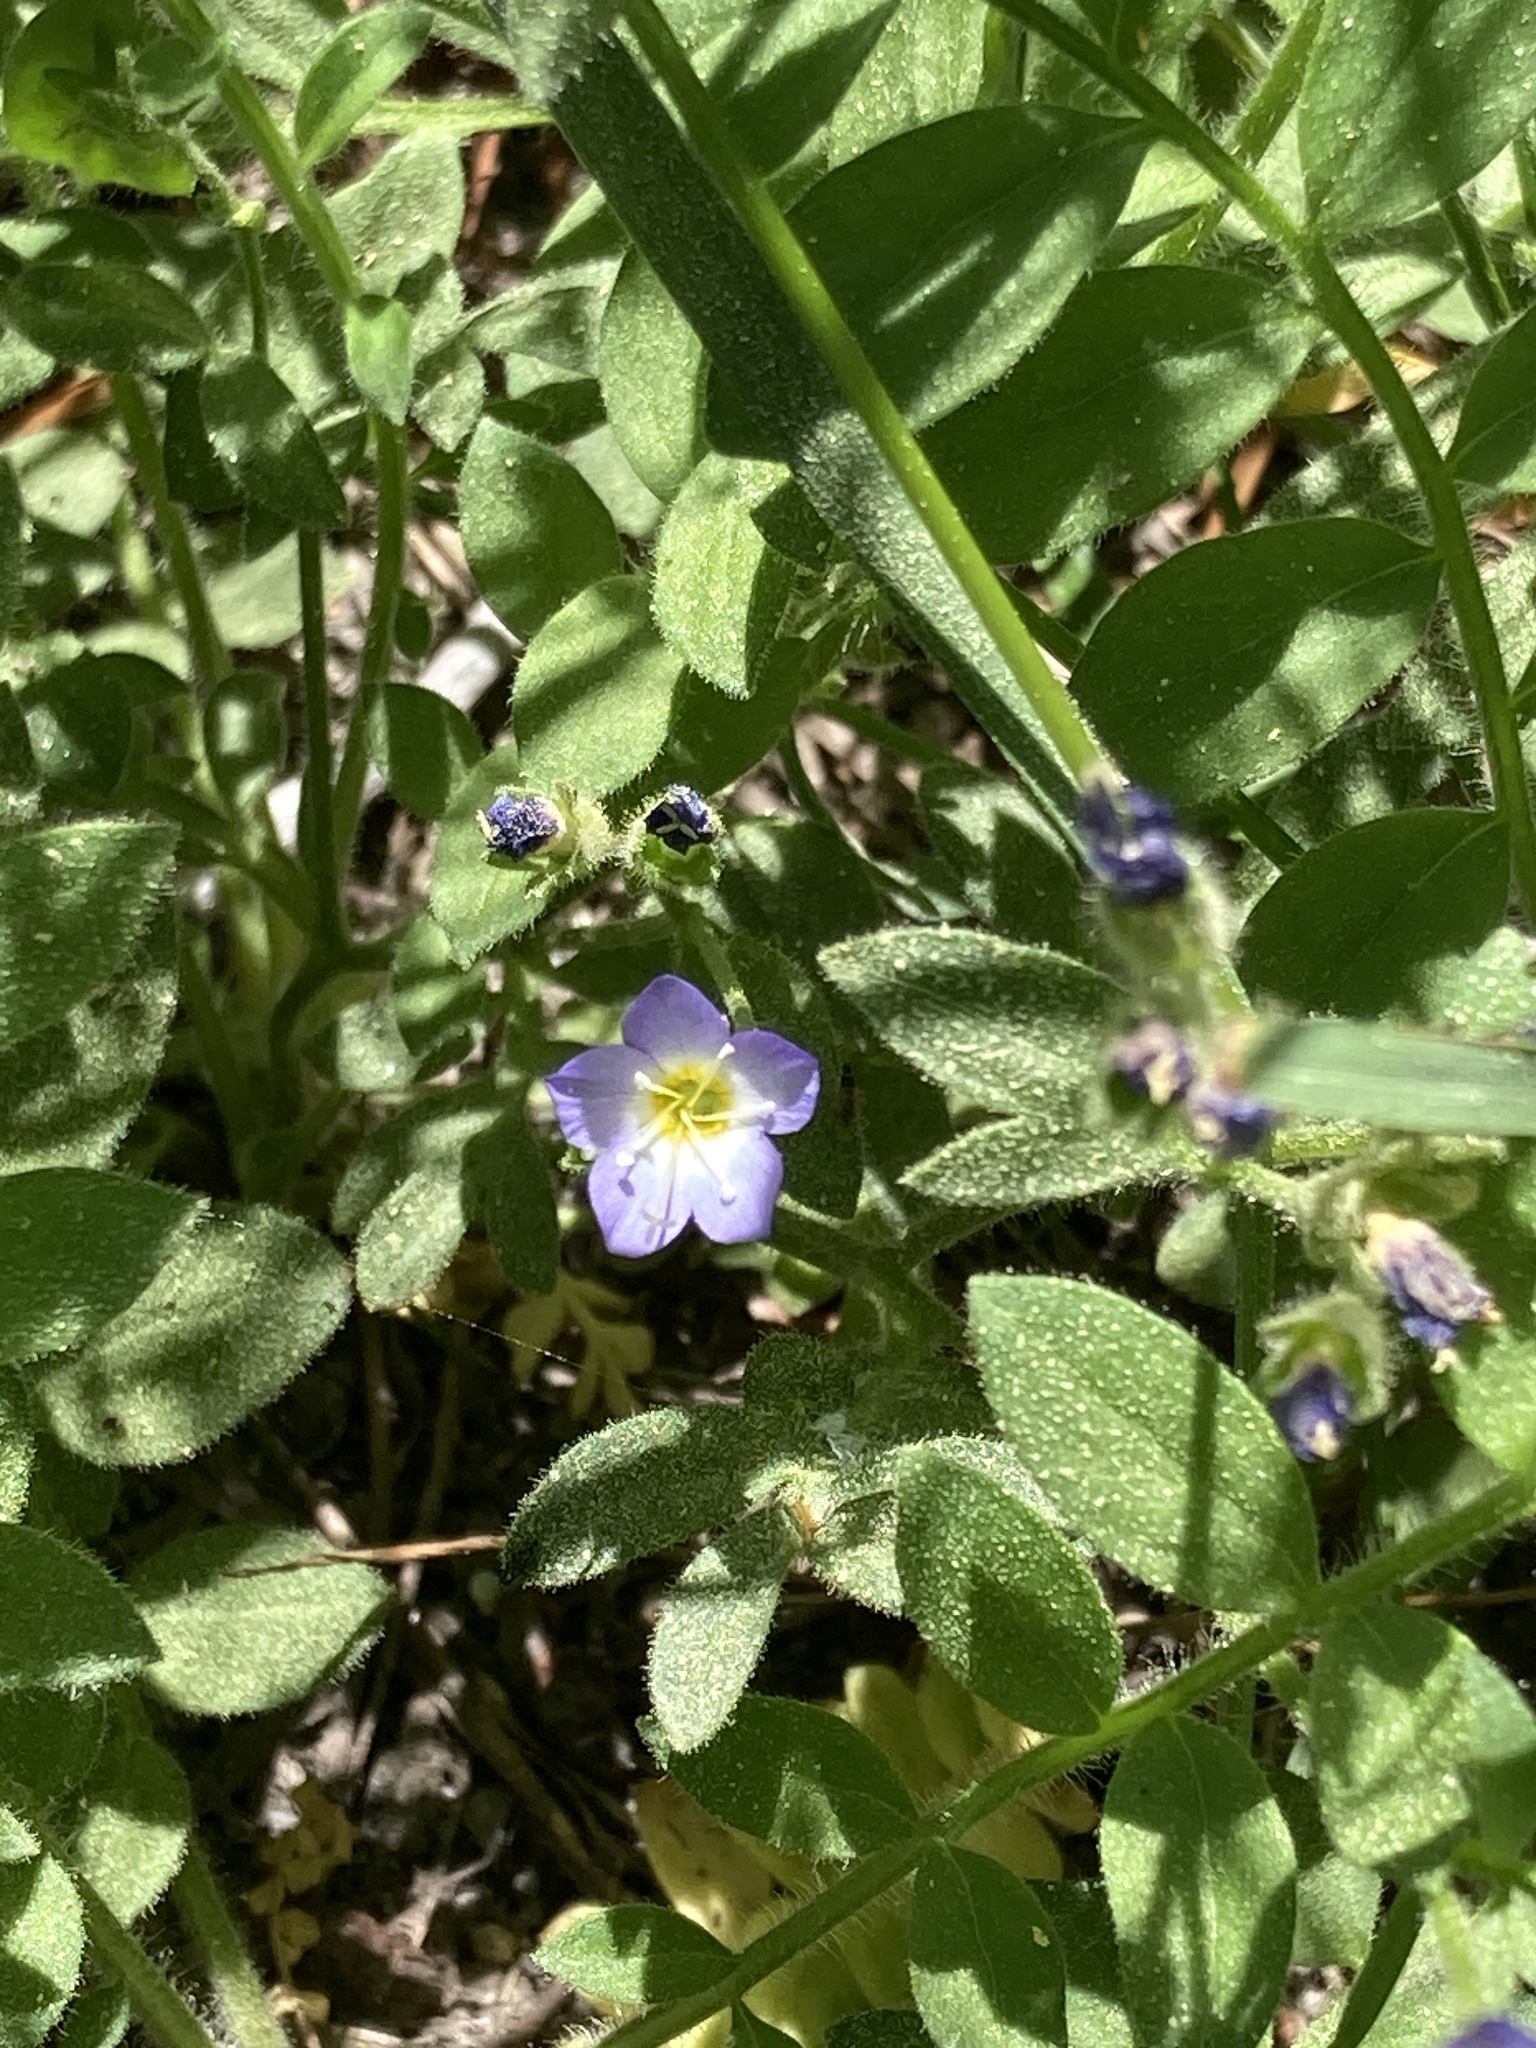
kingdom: Plantae
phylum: Tracheophyta
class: Magnoliopsida
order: Ericales
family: Polemoniaceae
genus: Polemonium
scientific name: Polemonium californicum
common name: California jacob's ladder
